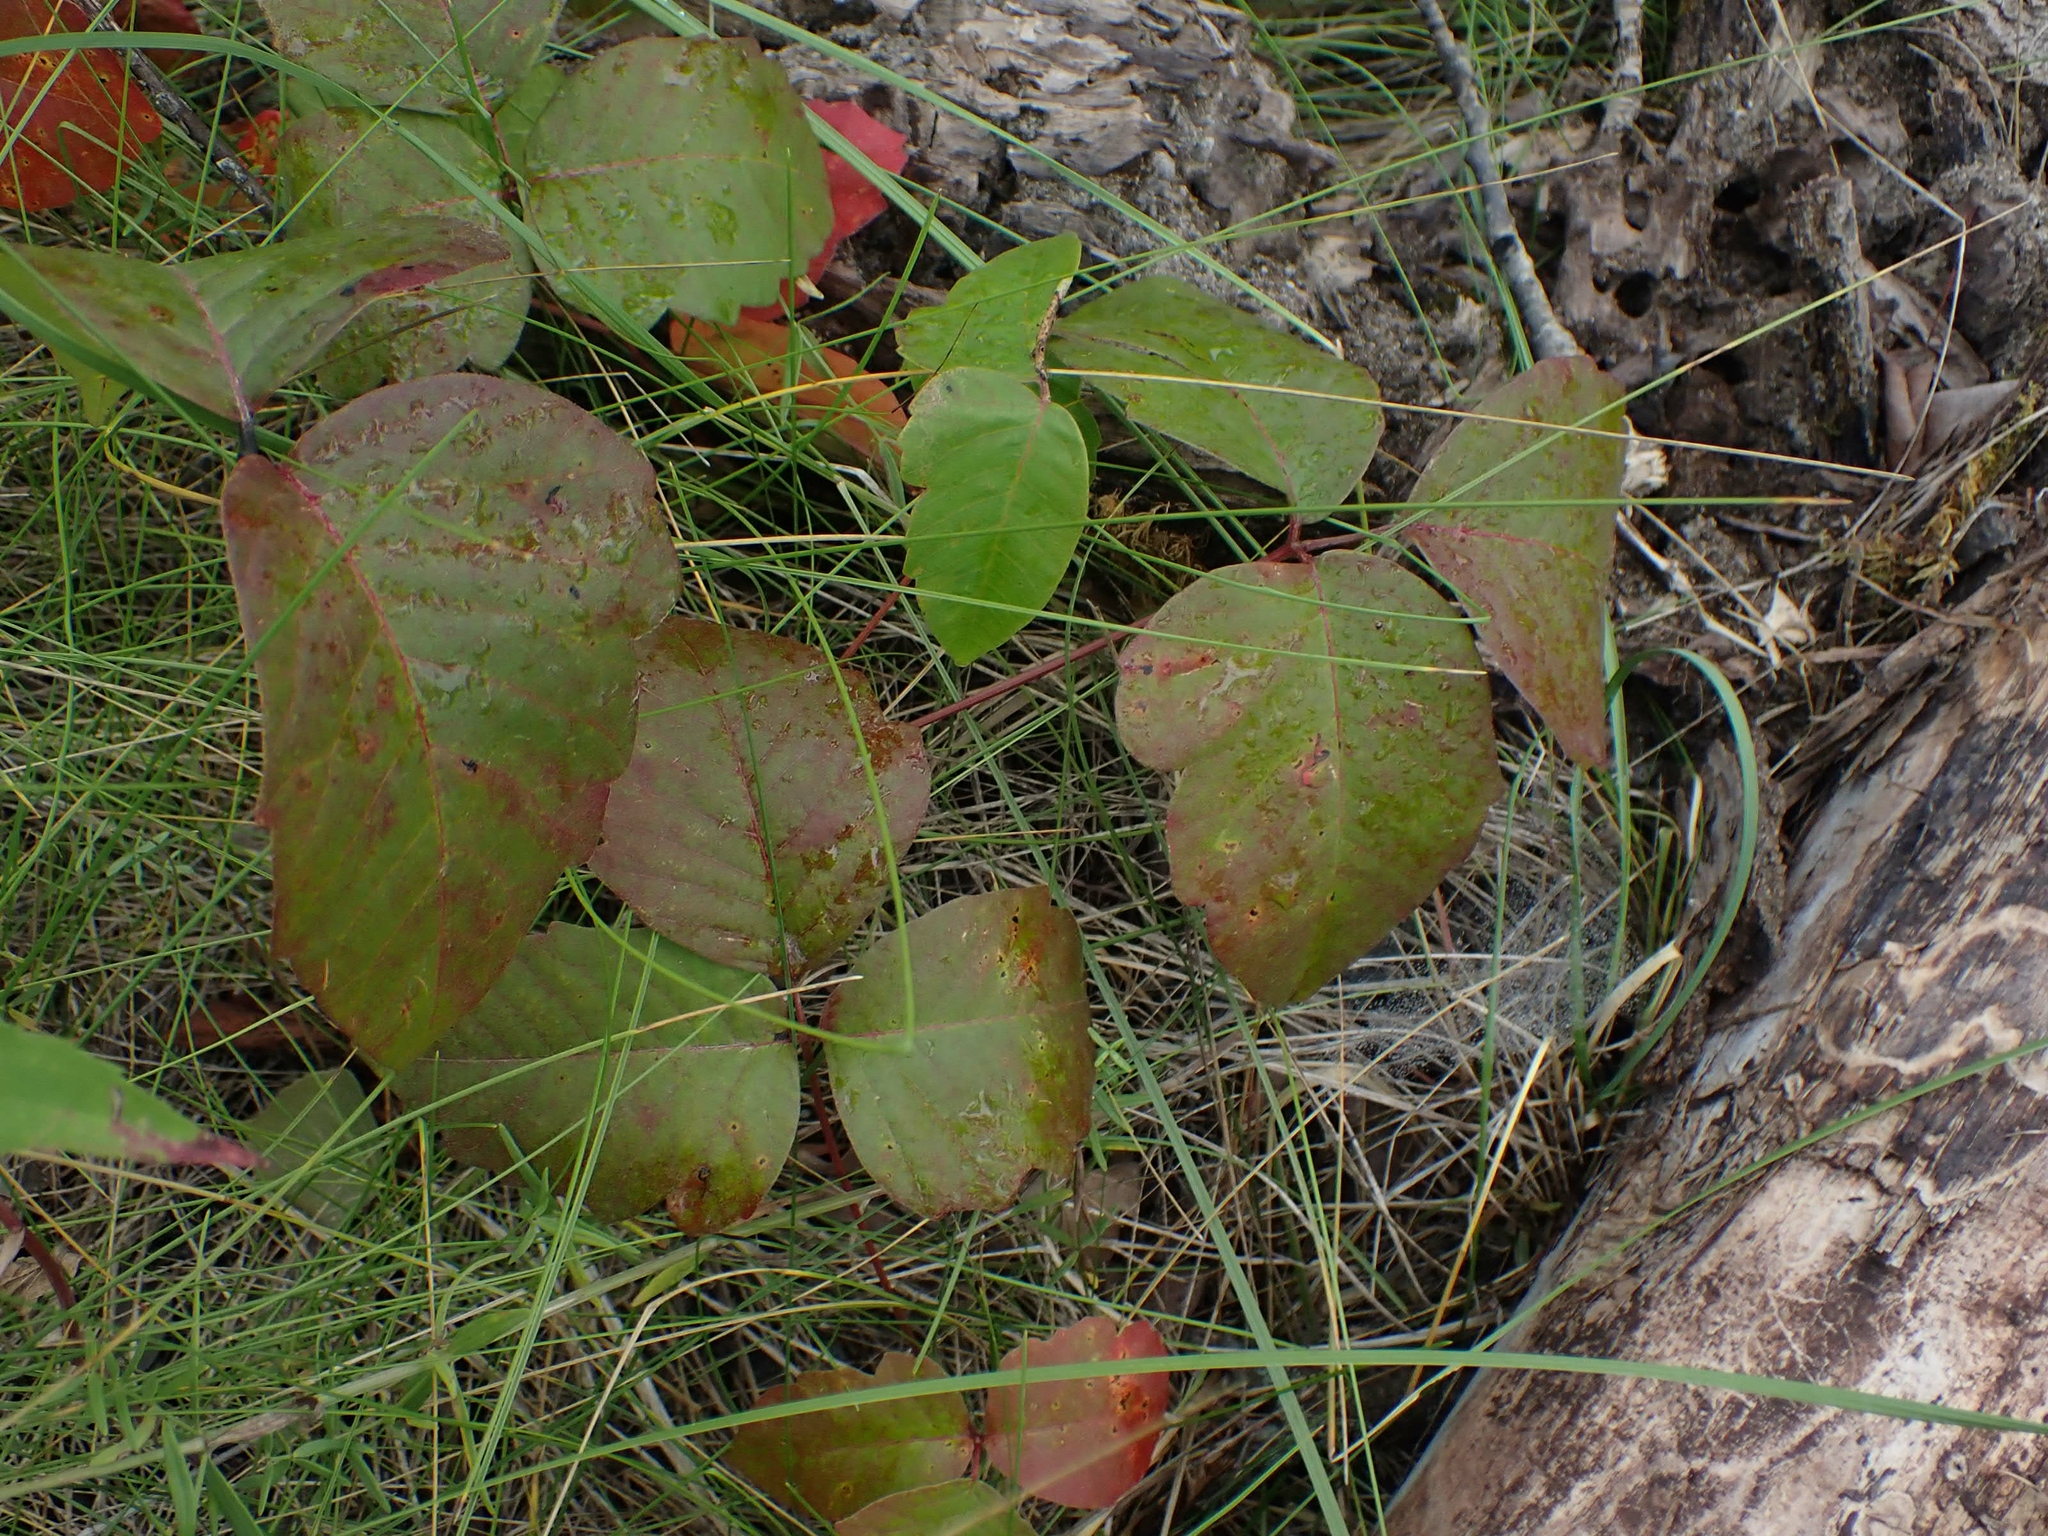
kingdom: Plantae
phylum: Tracheophyta
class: Magnoliopsida
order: Sapindales
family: Anacardiaceae
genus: Toxicodendron
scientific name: Toxicodendron rydbergii
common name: Rydberg's poison-ivy
